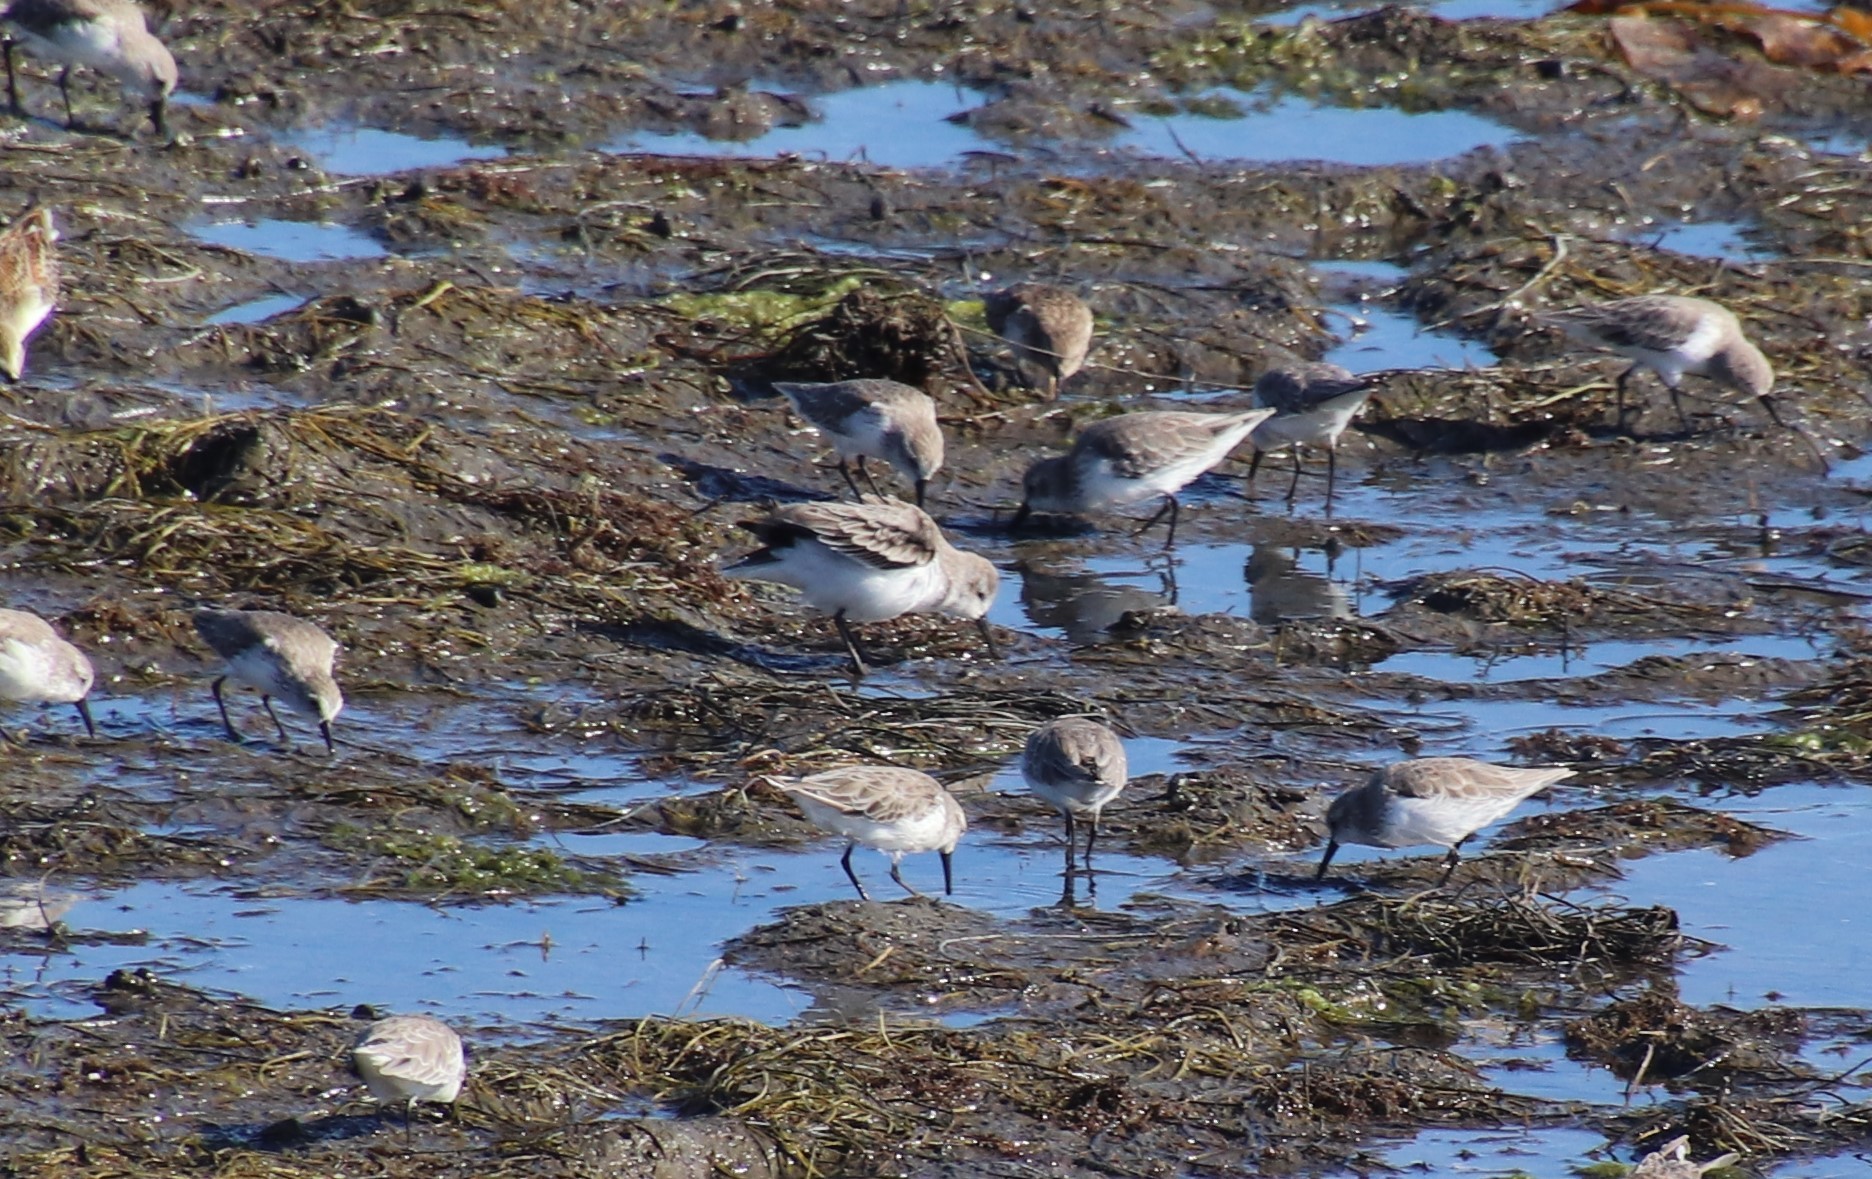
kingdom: Animalia
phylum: Chordata
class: Aves
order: Charadriiformes
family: Scolopacidae
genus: Calidris
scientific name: Calidris mauri
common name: Western sandpiper
